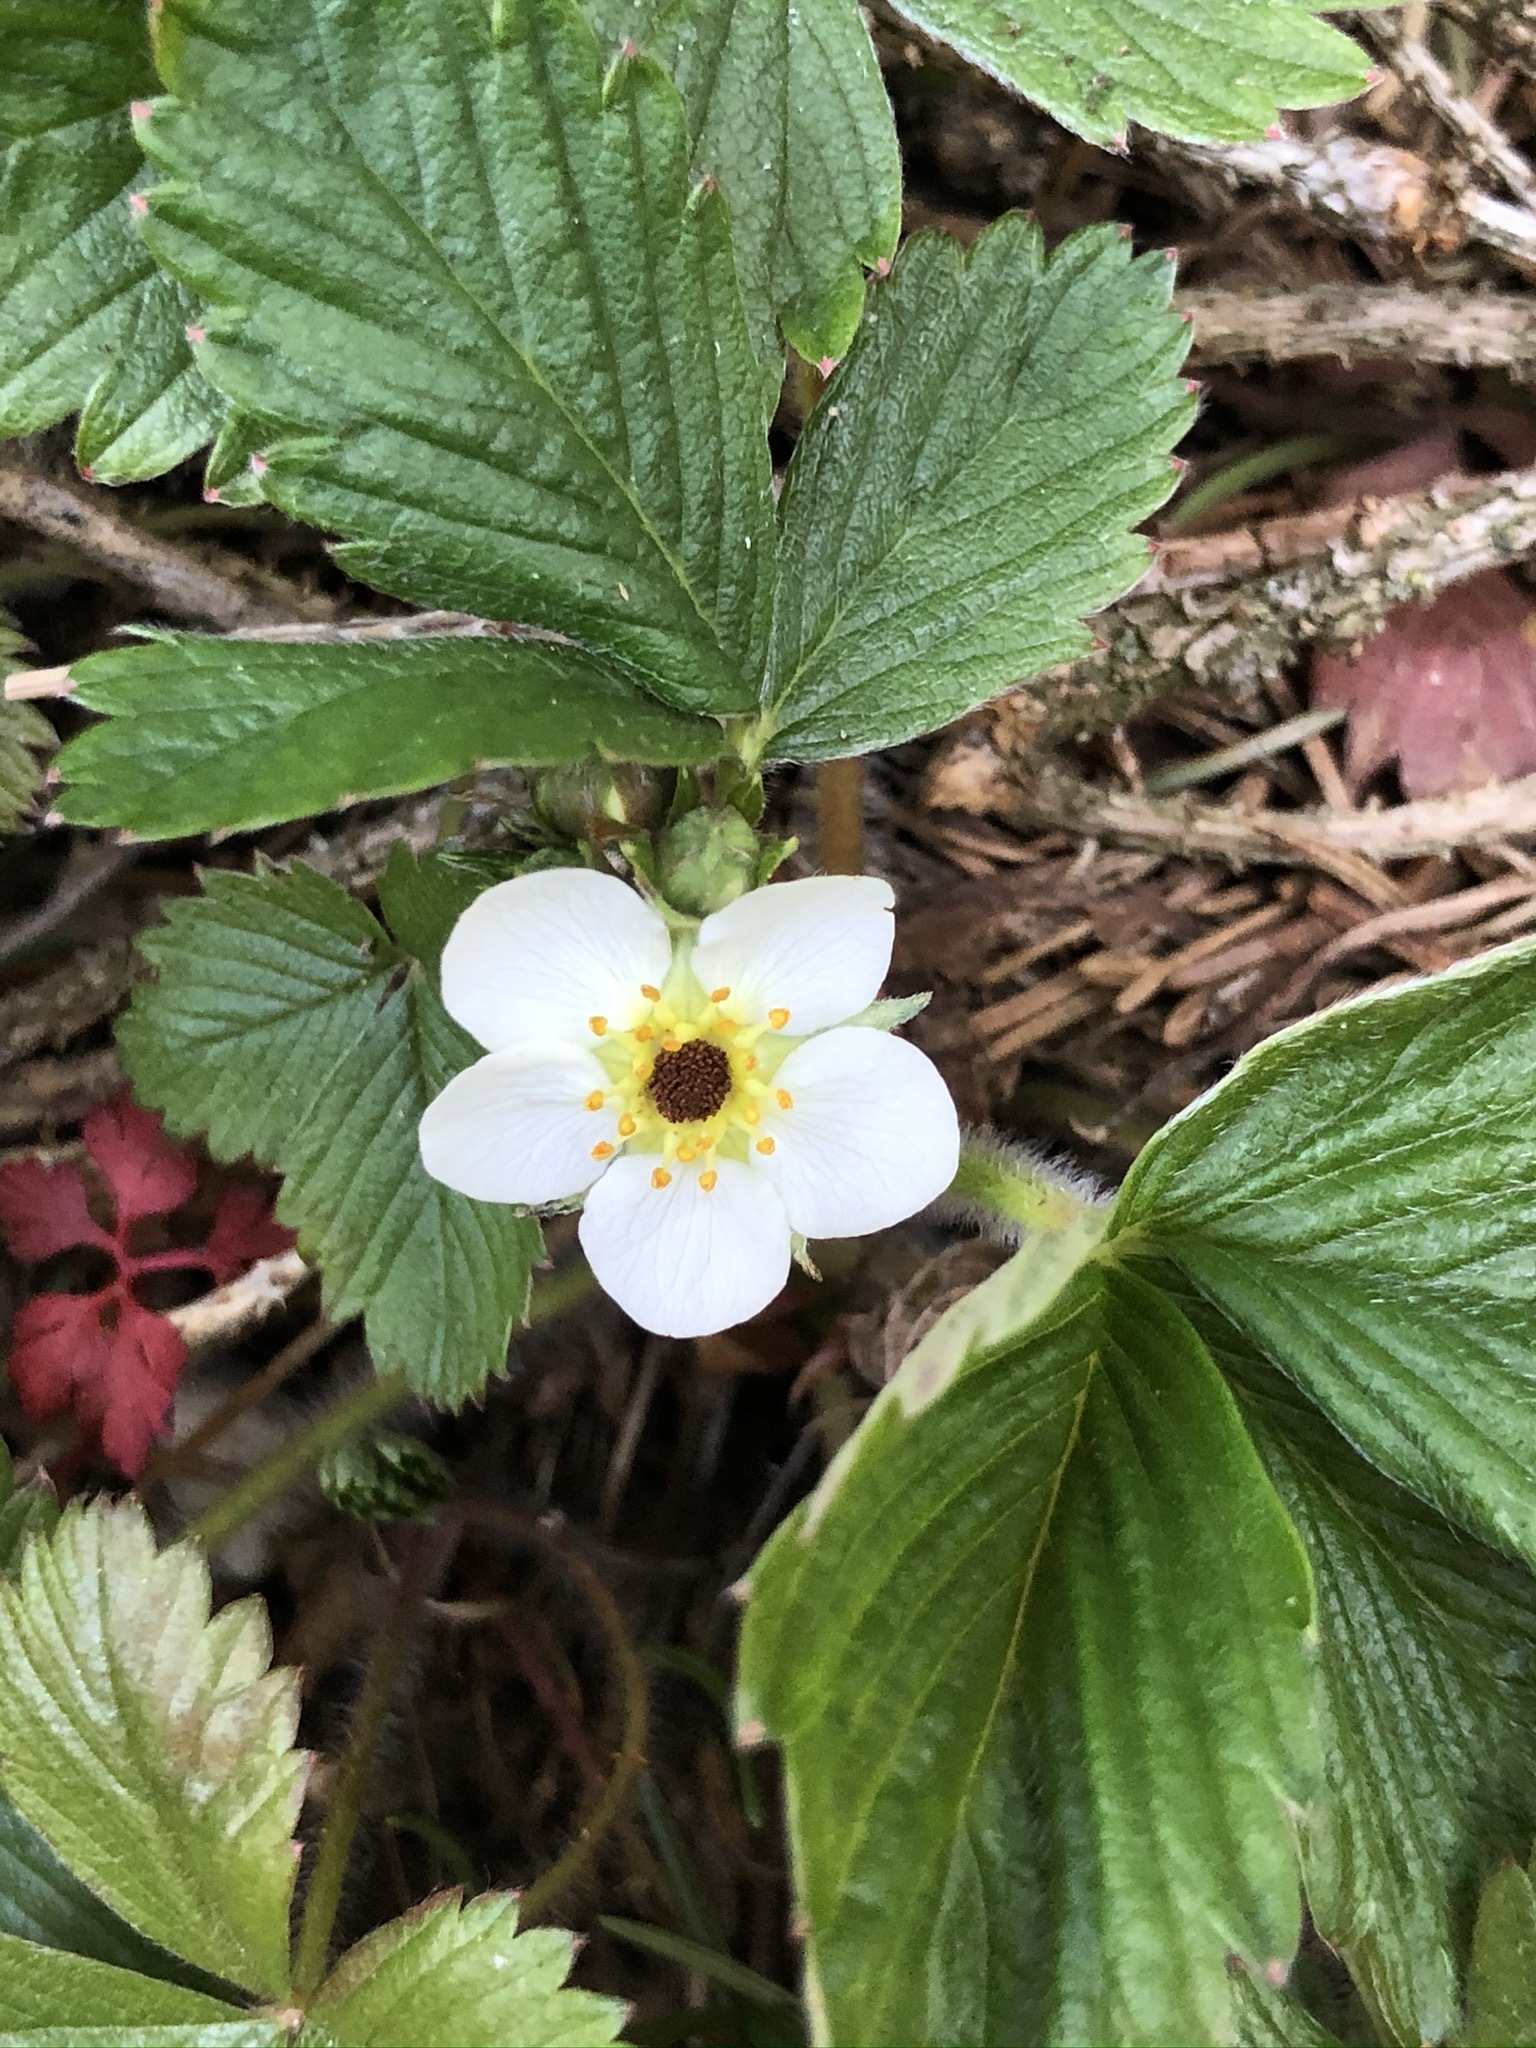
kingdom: Plantae
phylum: Tracheophyta
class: Magnoliopsida
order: Rosales
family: Rosaceae
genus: Fragaria
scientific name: Fragaria vesca
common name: Wild strawberry
